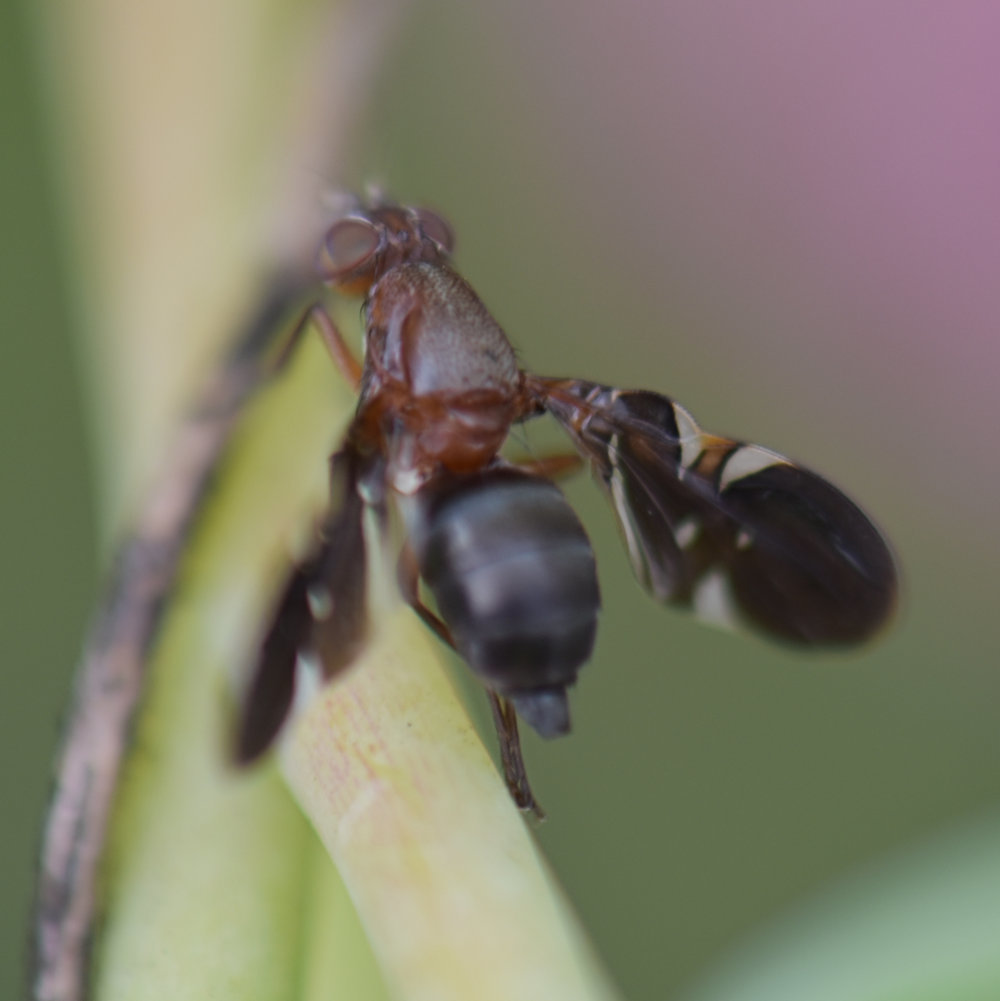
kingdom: Animalia
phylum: Arthropoda
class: Insecta
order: Diptera
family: Ulidiidae
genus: Delphinia
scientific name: Delphinia picta
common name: Common picture-winged fly
